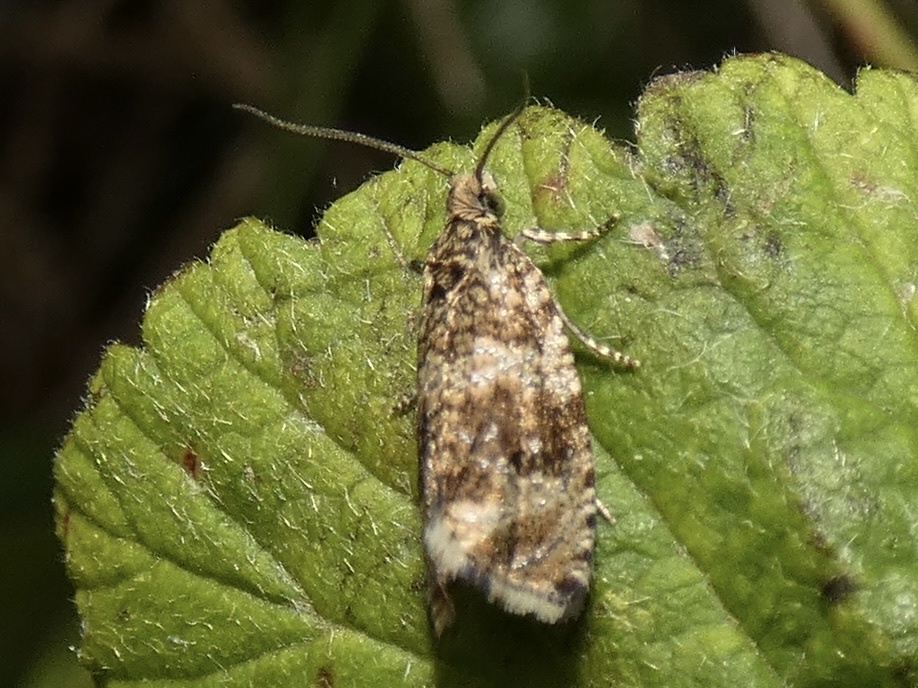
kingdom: Animalia
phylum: Arthropoda
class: Insecta
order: Lepidoptera
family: Tortricidae
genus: Syricoris
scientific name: Syricoris lacunana
